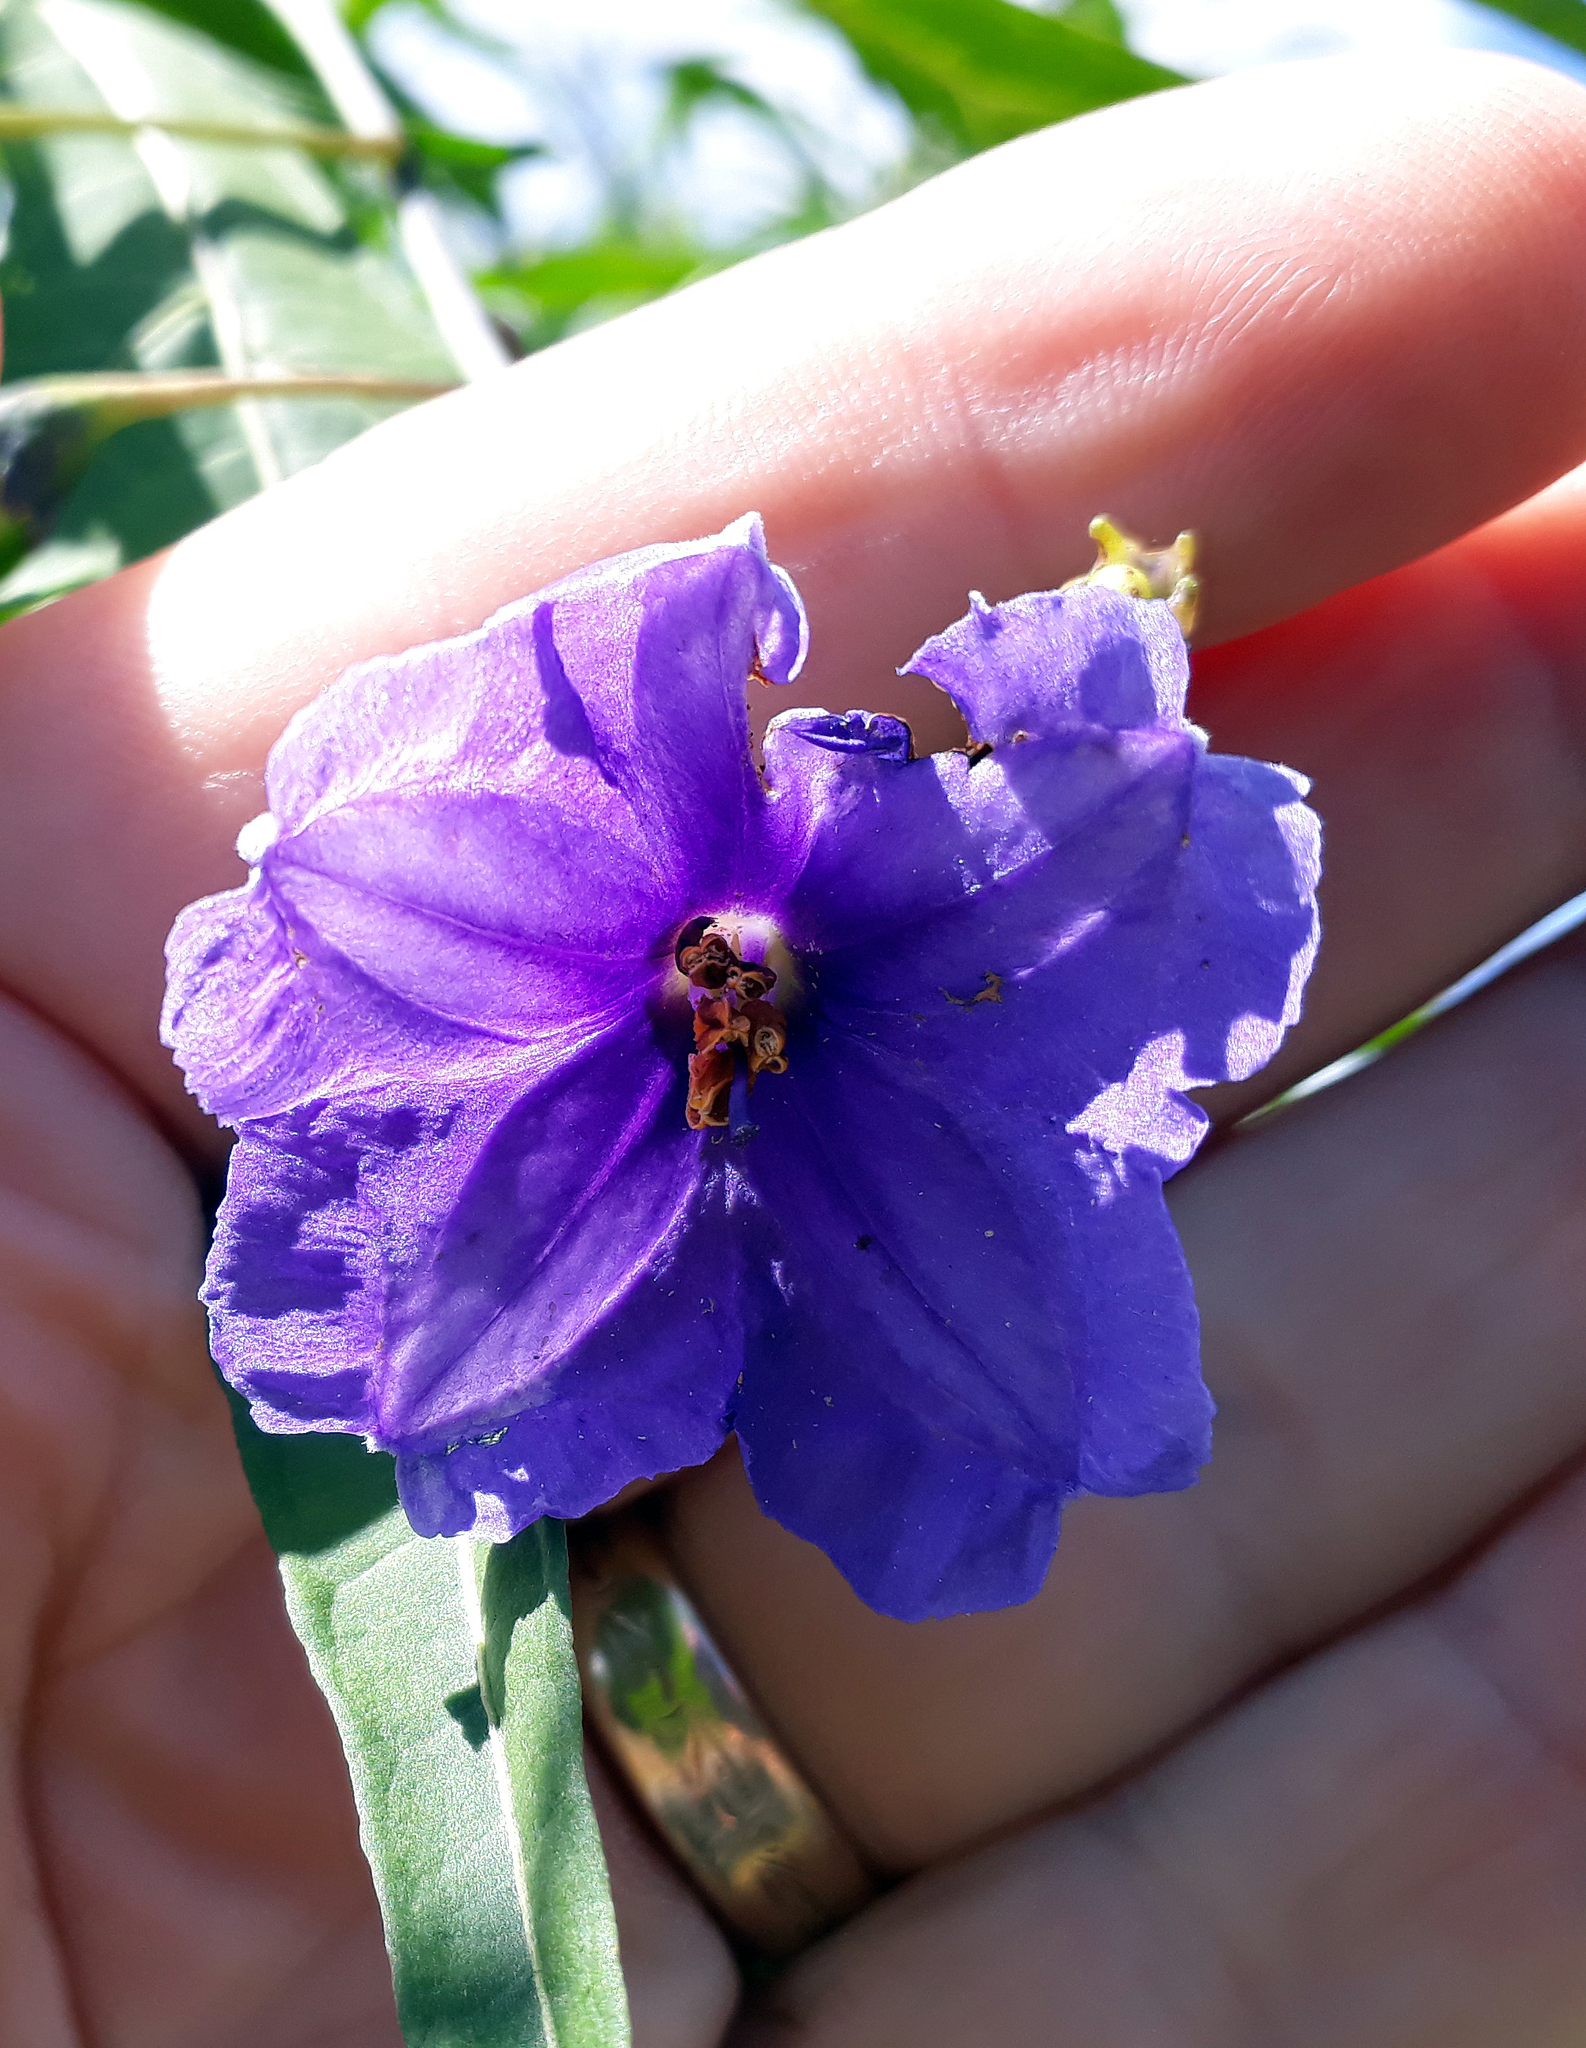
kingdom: Plantae
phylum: Tracheophyta
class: Magnoliopsida
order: Solanales
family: Solanaceae
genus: Solanum
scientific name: Solanum laciniatum
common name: Kangaroo-apple
